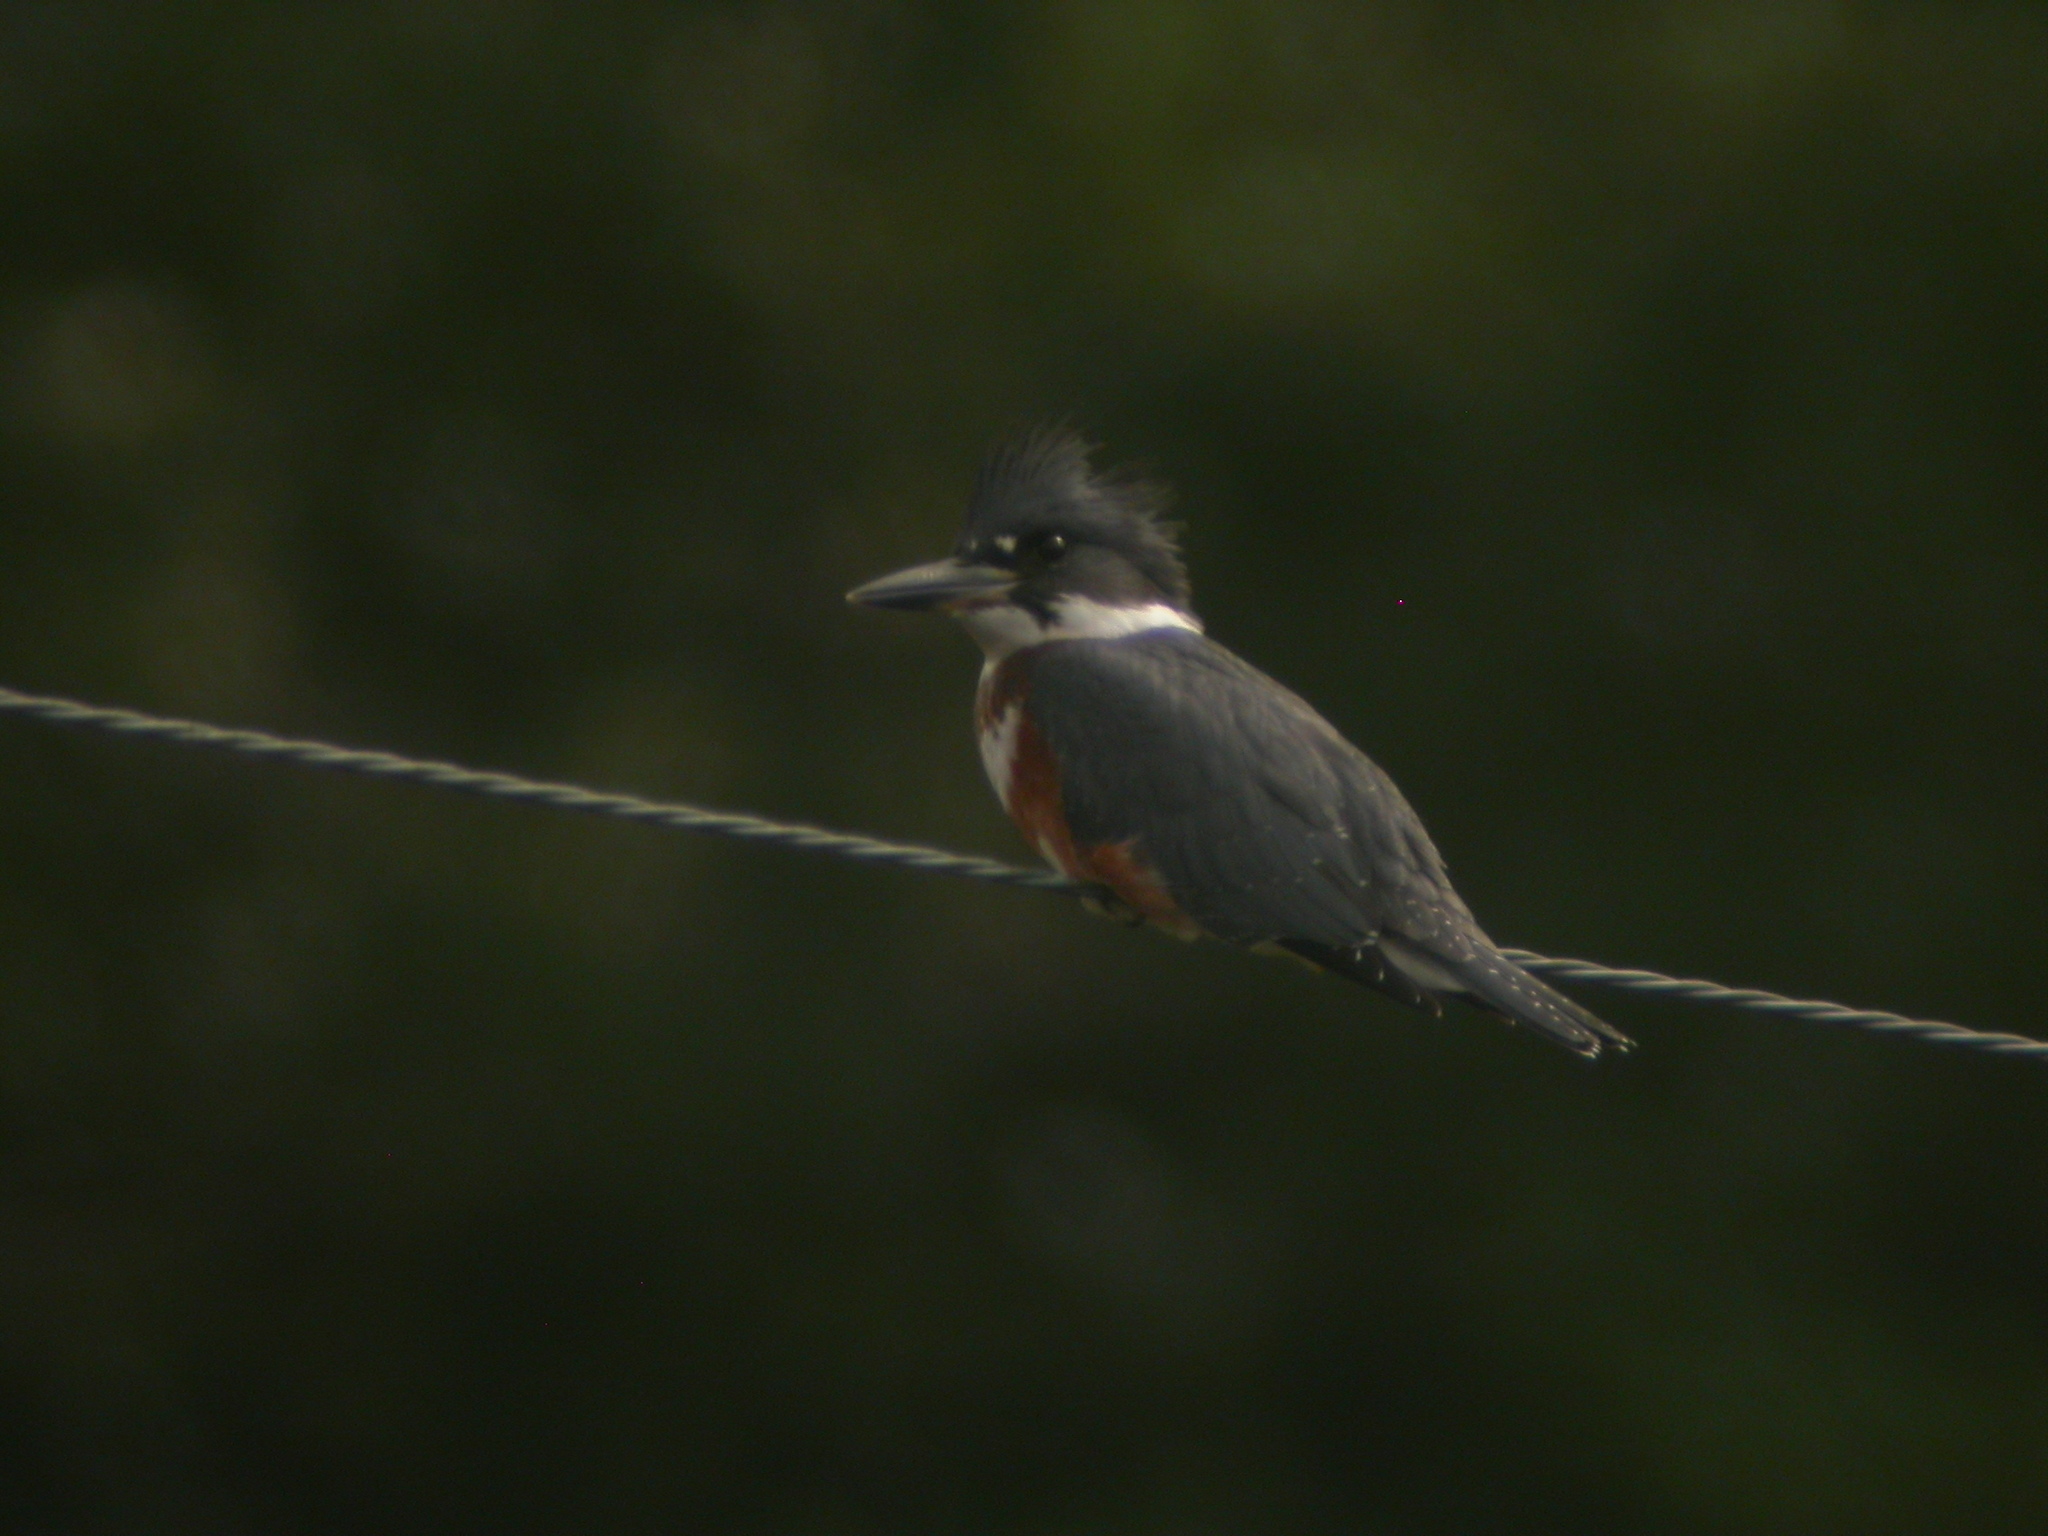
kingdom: Animalia
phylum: Chordata
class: Aves
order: Coraciiformes
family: Alcedinidae
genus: Megaceryle
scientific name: Megaceryle alcyon
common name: Belted kingfisher
